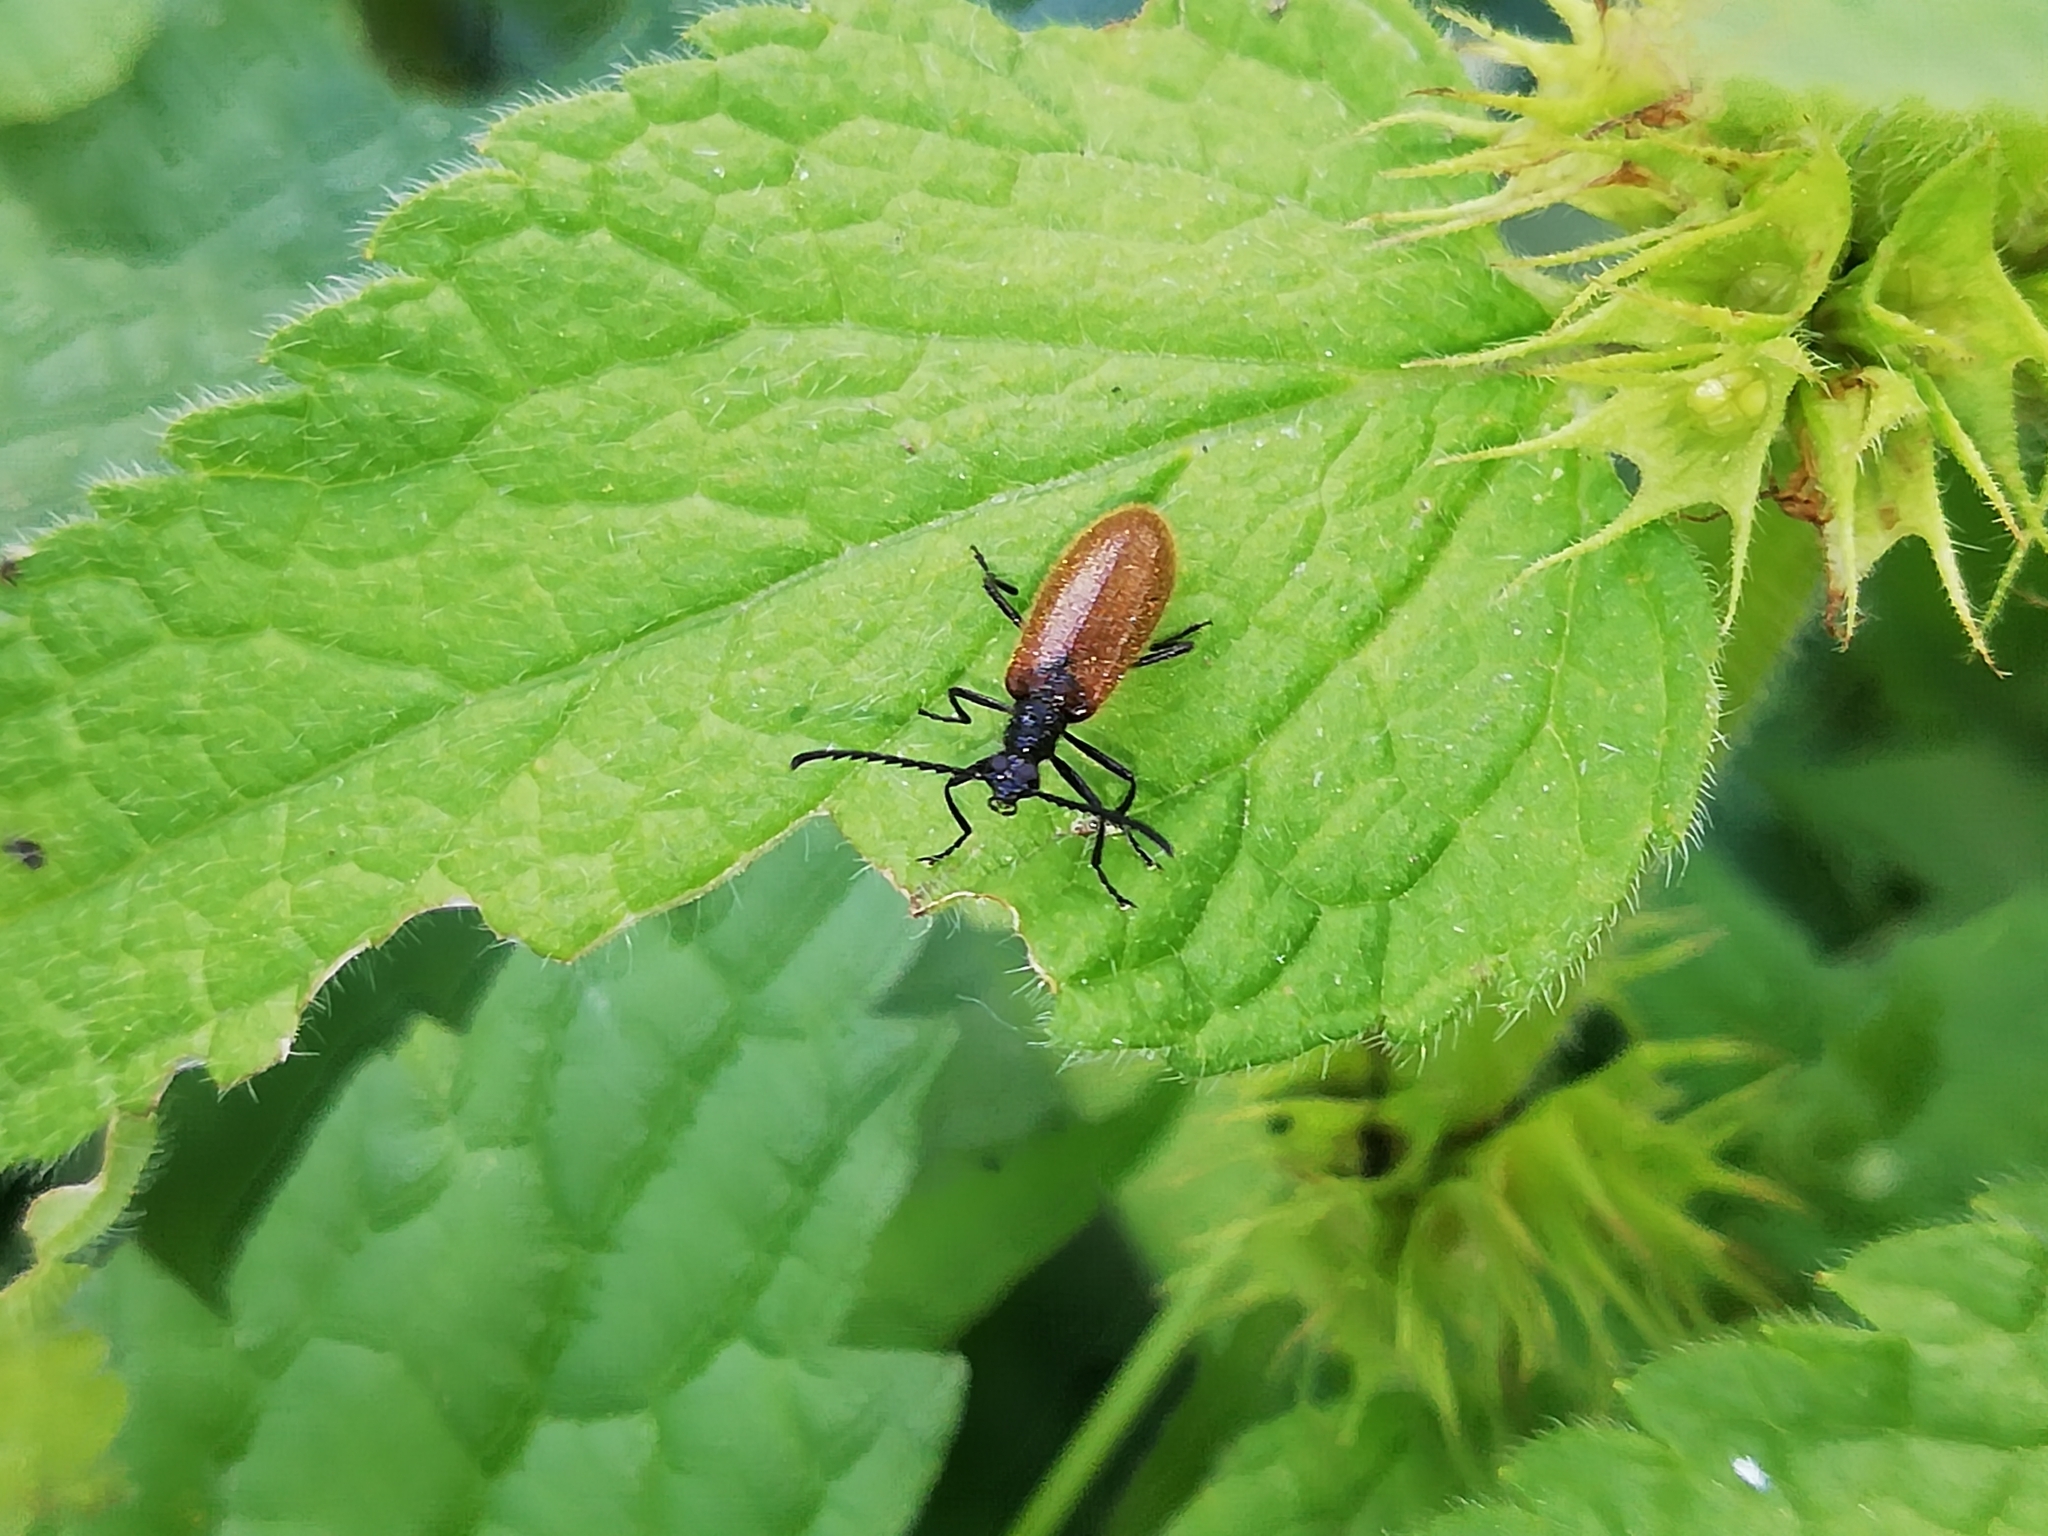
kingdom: Animalia
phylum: Arthropoda
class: Insecta
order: Coleoptera
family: Tenebrionidae
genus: Lagria
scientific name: Lagria hirta
